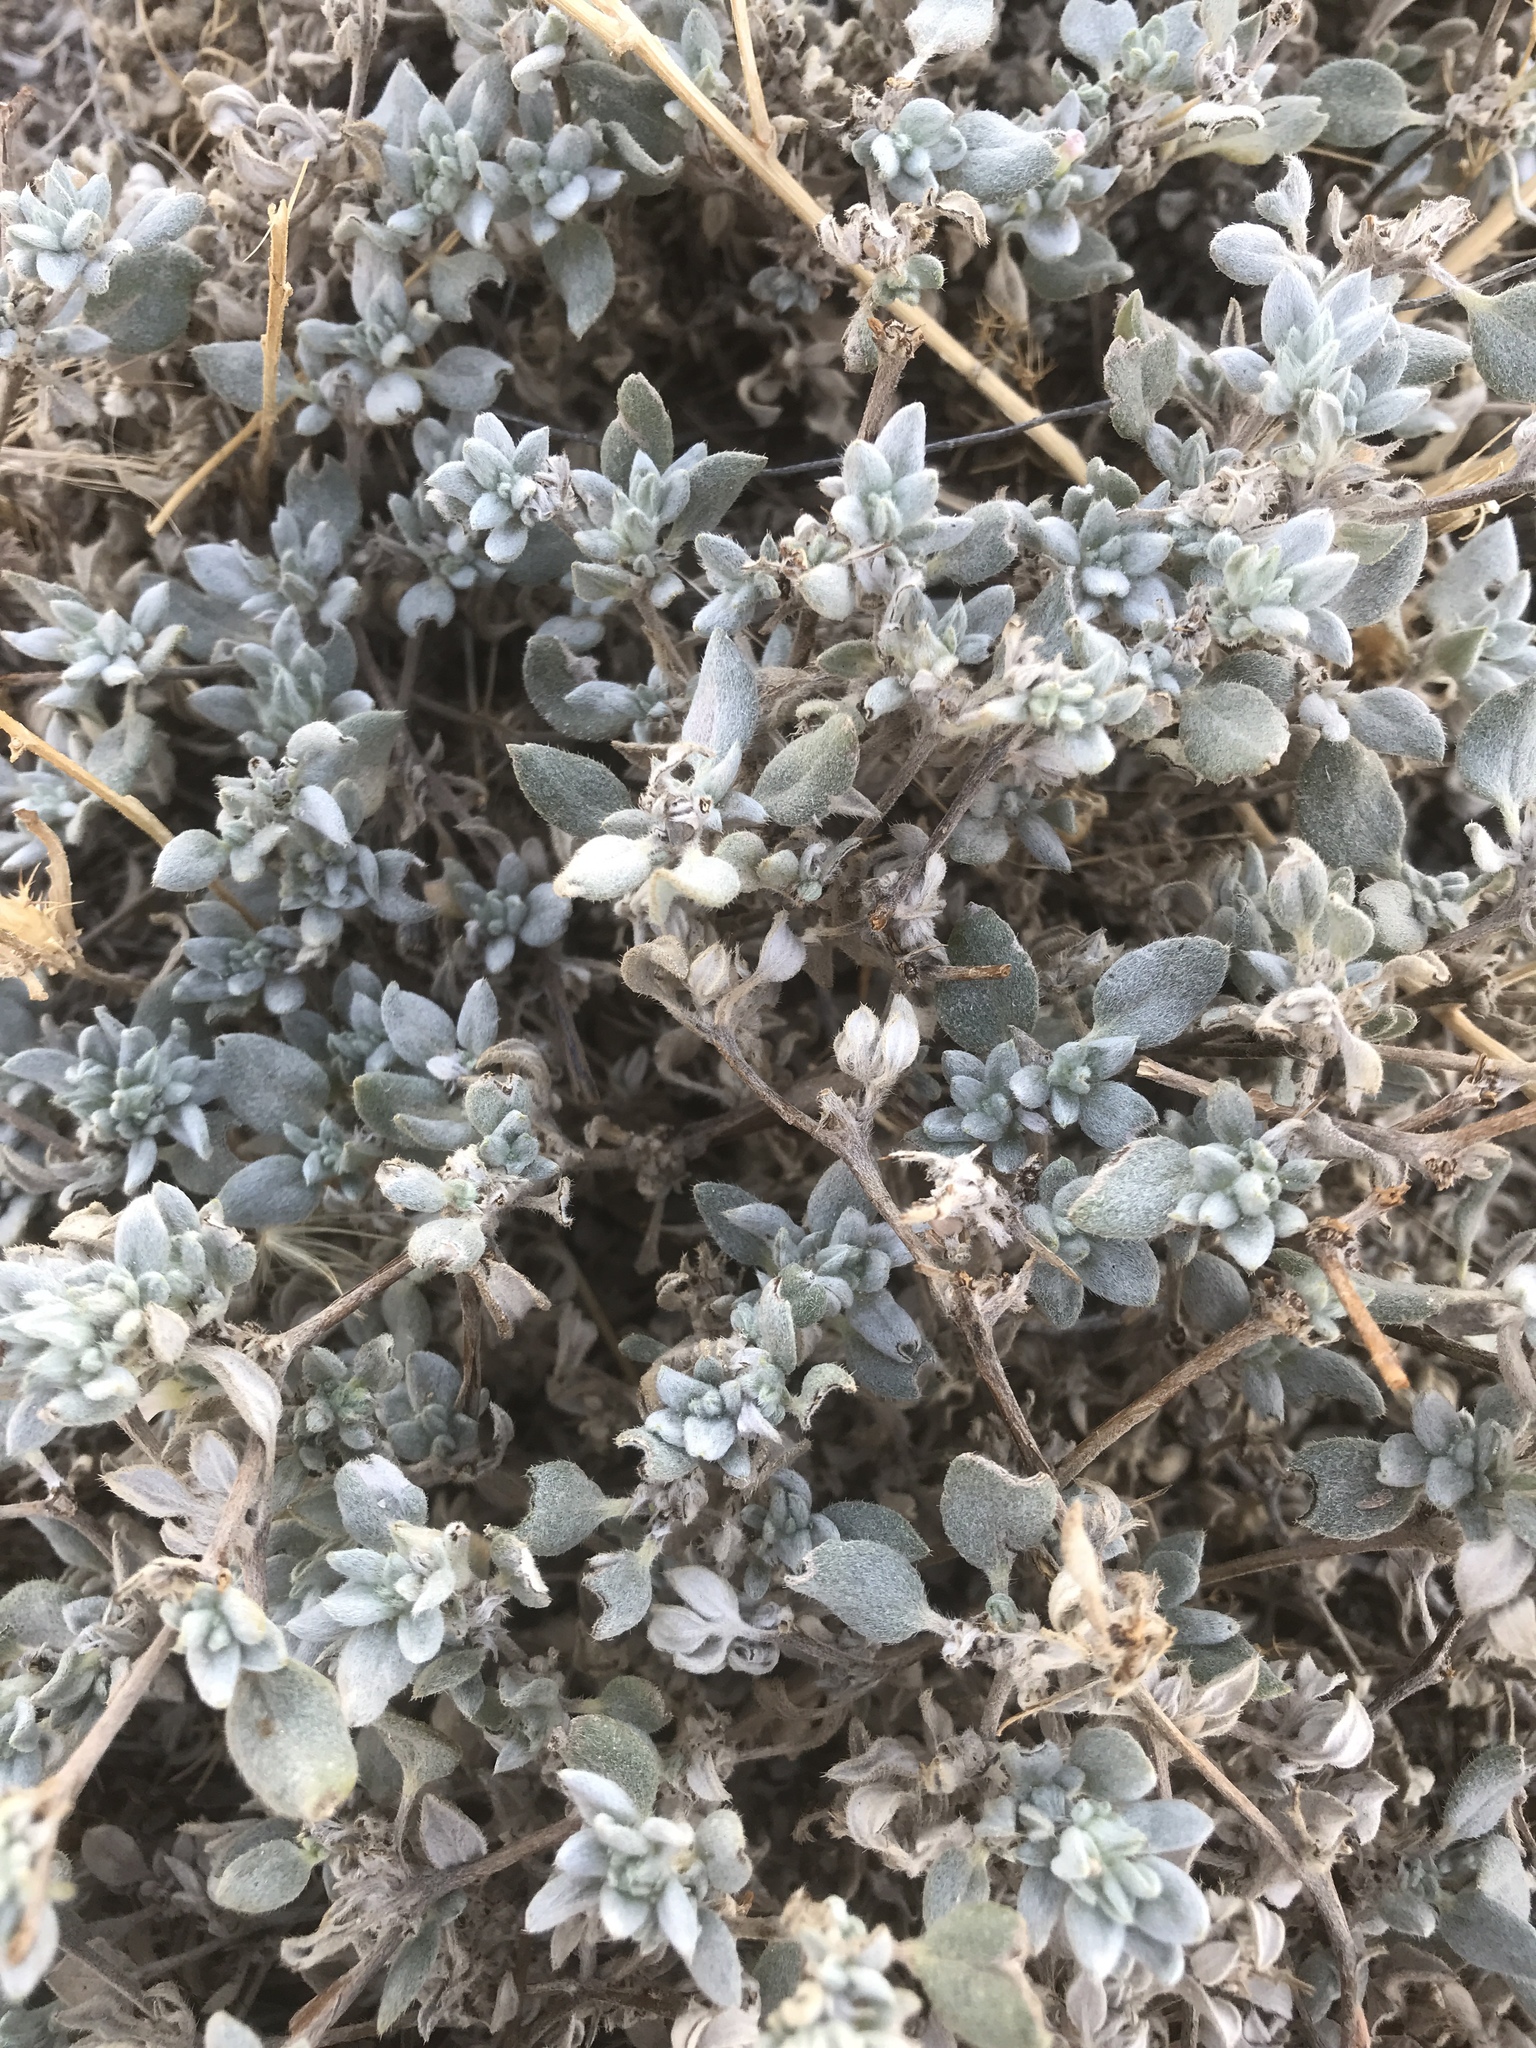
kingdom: Plantae
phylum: Tracheophyta
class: Magnoliopsida
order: Boraginales
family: Ehretiaceae
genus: Tiquilia
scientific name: Tiquilia canescens
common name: Hairy tiquilia
